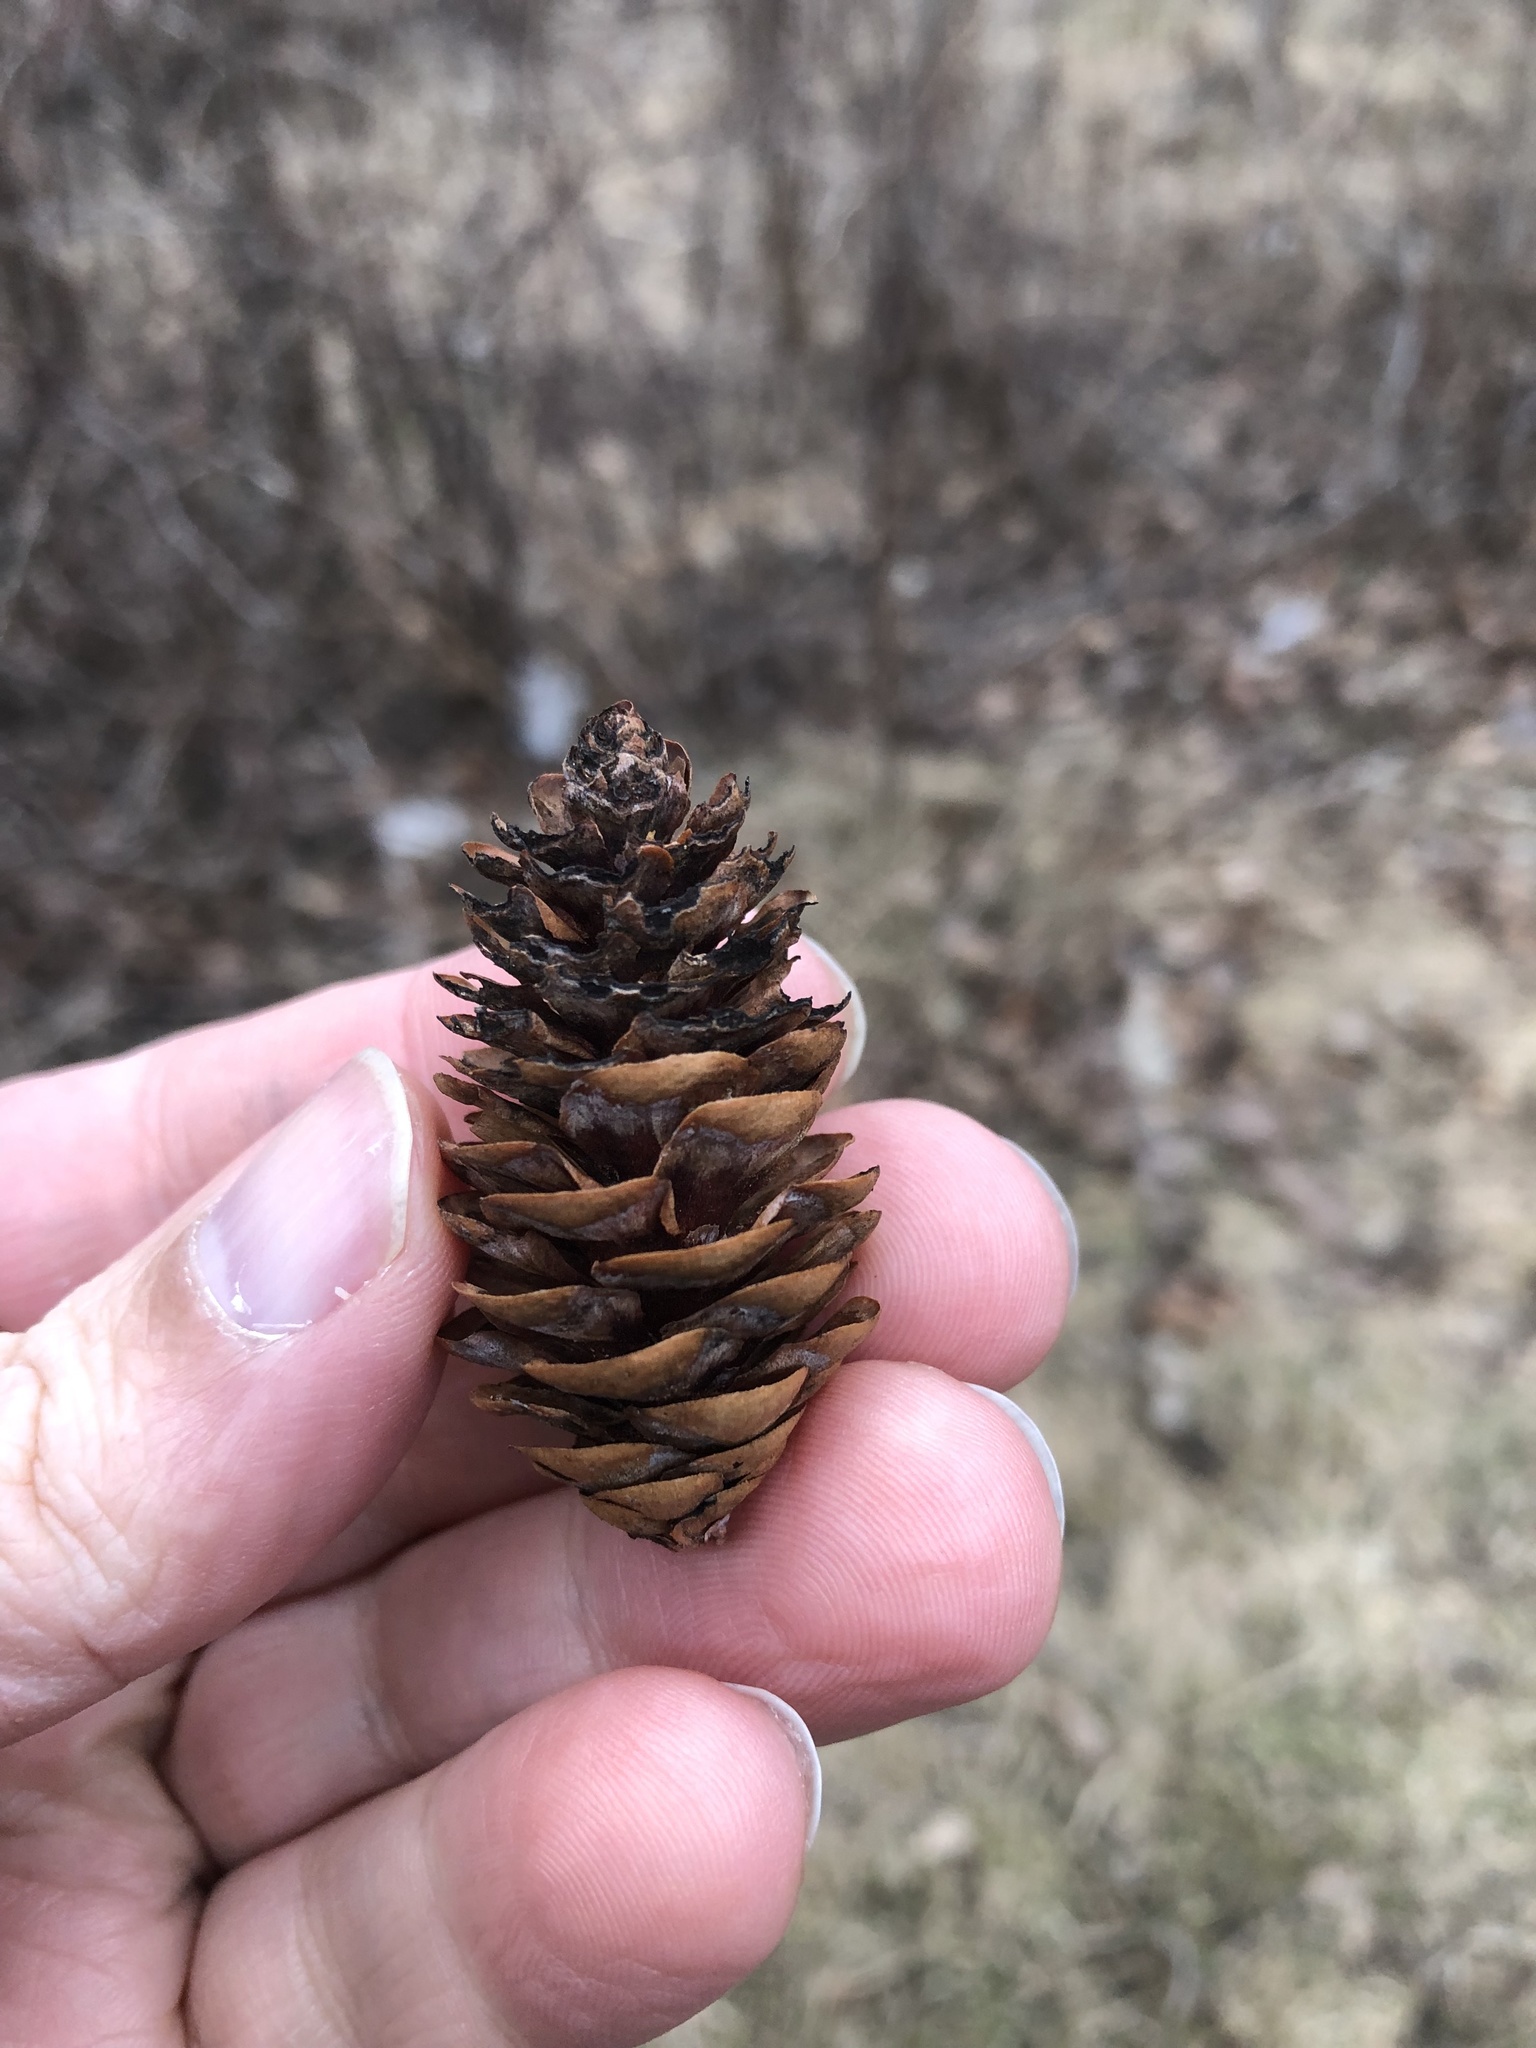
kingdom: Plantae
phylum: Tracheophyta
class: Pinopsida
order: Pinales
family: Pinaceae
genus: Picea
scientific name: Picea glauca
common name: White spruce
